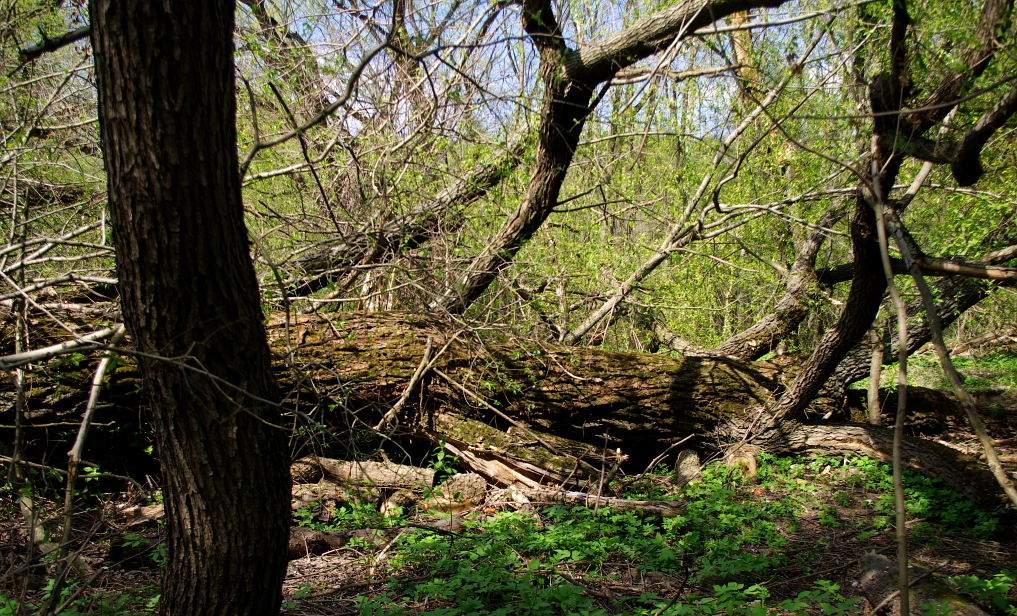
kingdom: Plantae
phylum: Tracheophyta
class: Magnoliopsida
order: Malpighiales
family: Salicaceae
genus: Salix
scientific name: Salix alba
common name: White willow
